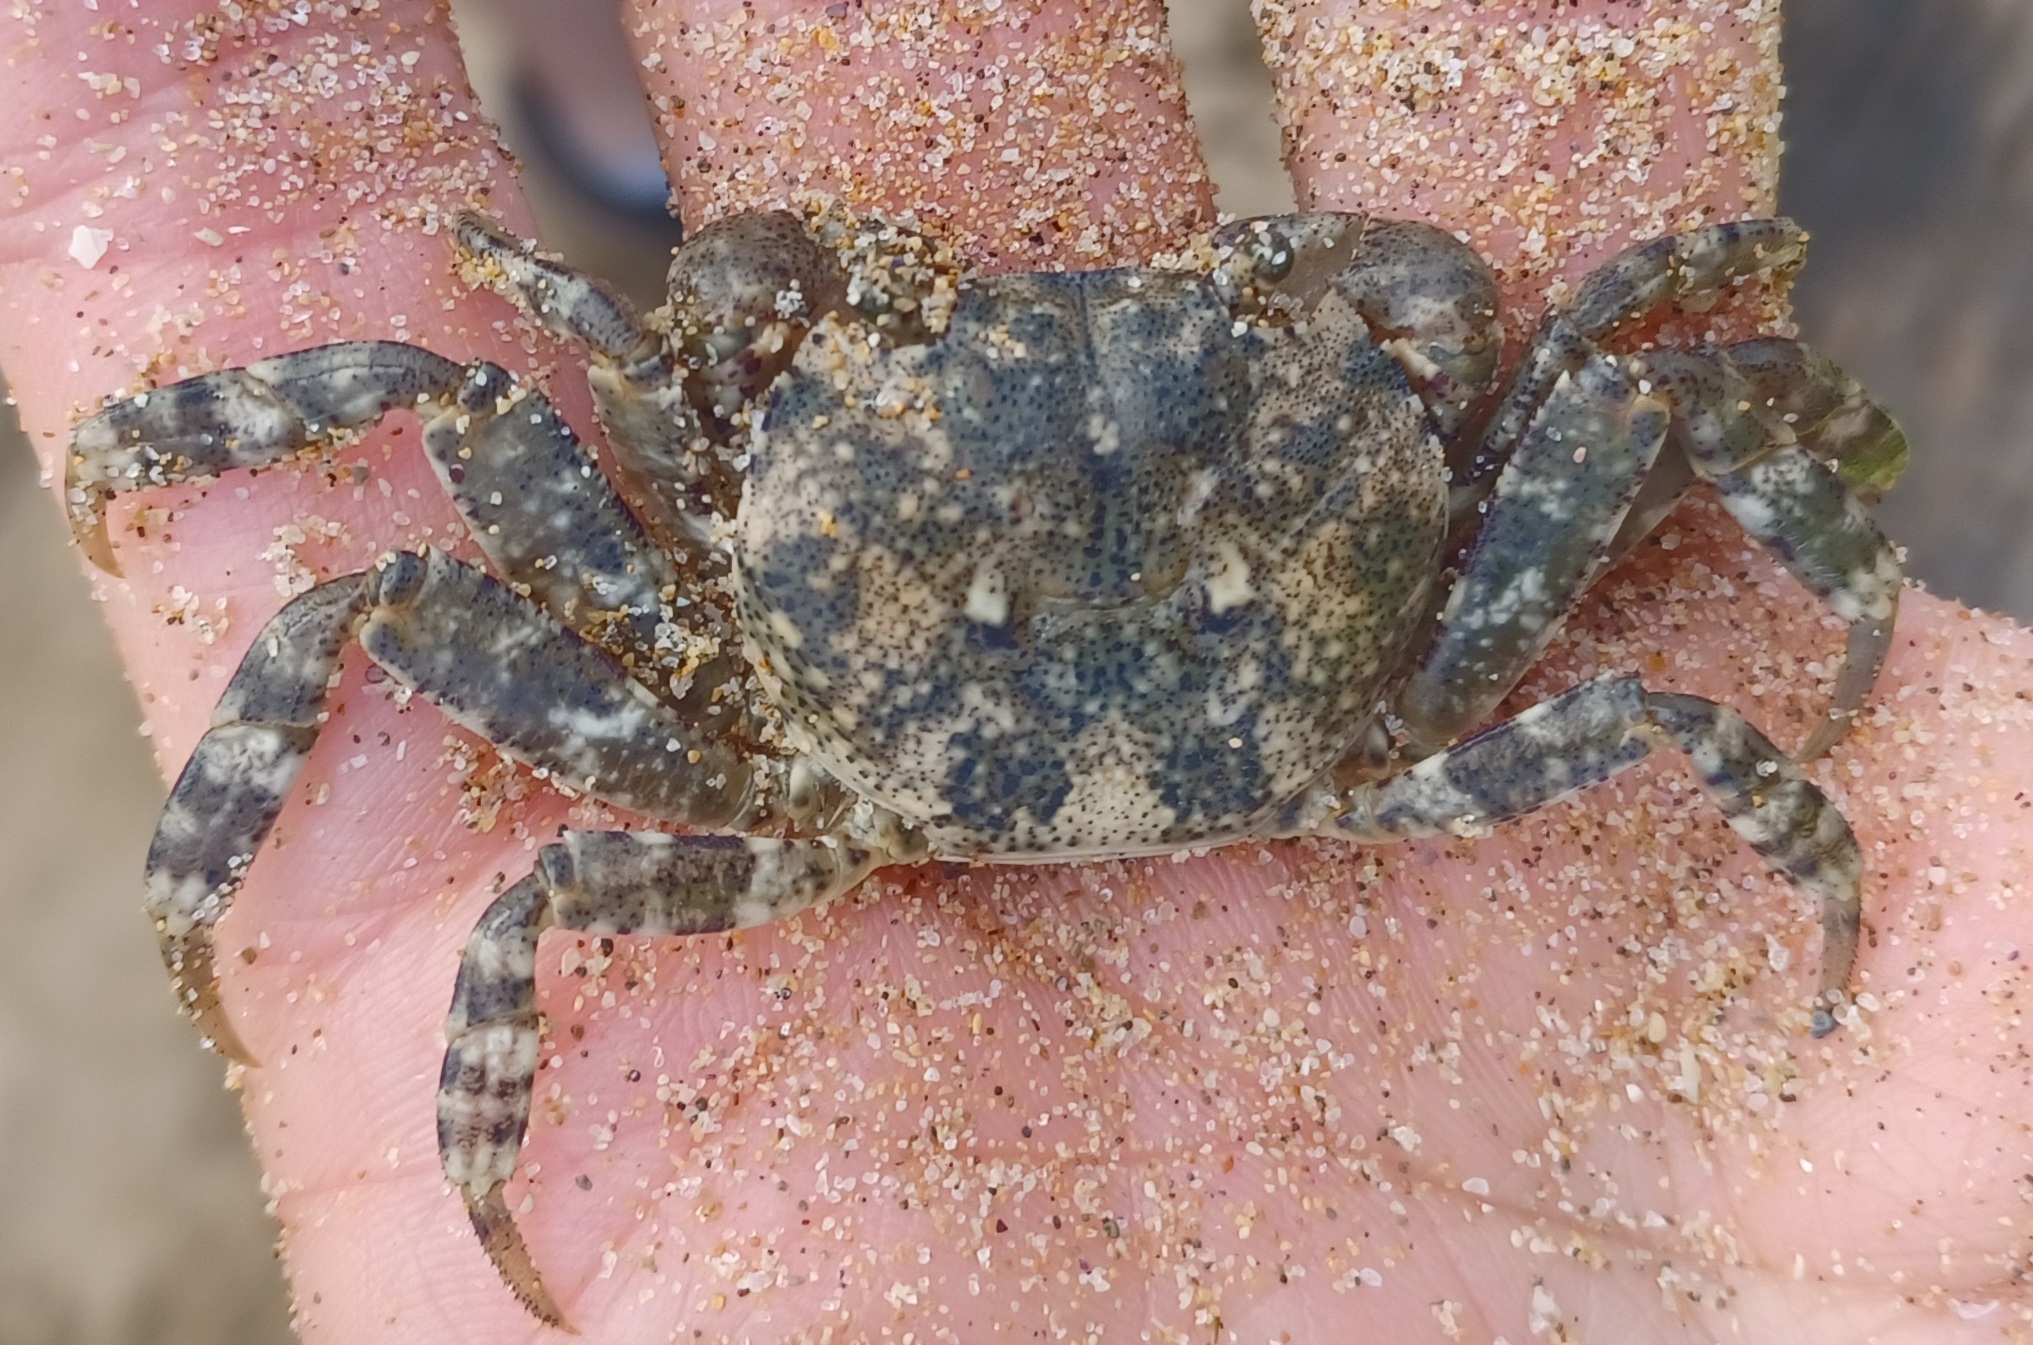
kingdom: Animalia
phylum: Arthropoda
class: Malacostraca
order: Decapoda
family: Leptograpsodidae
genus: Leptograpsodes
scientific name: Leptograpsodes octodentatus
